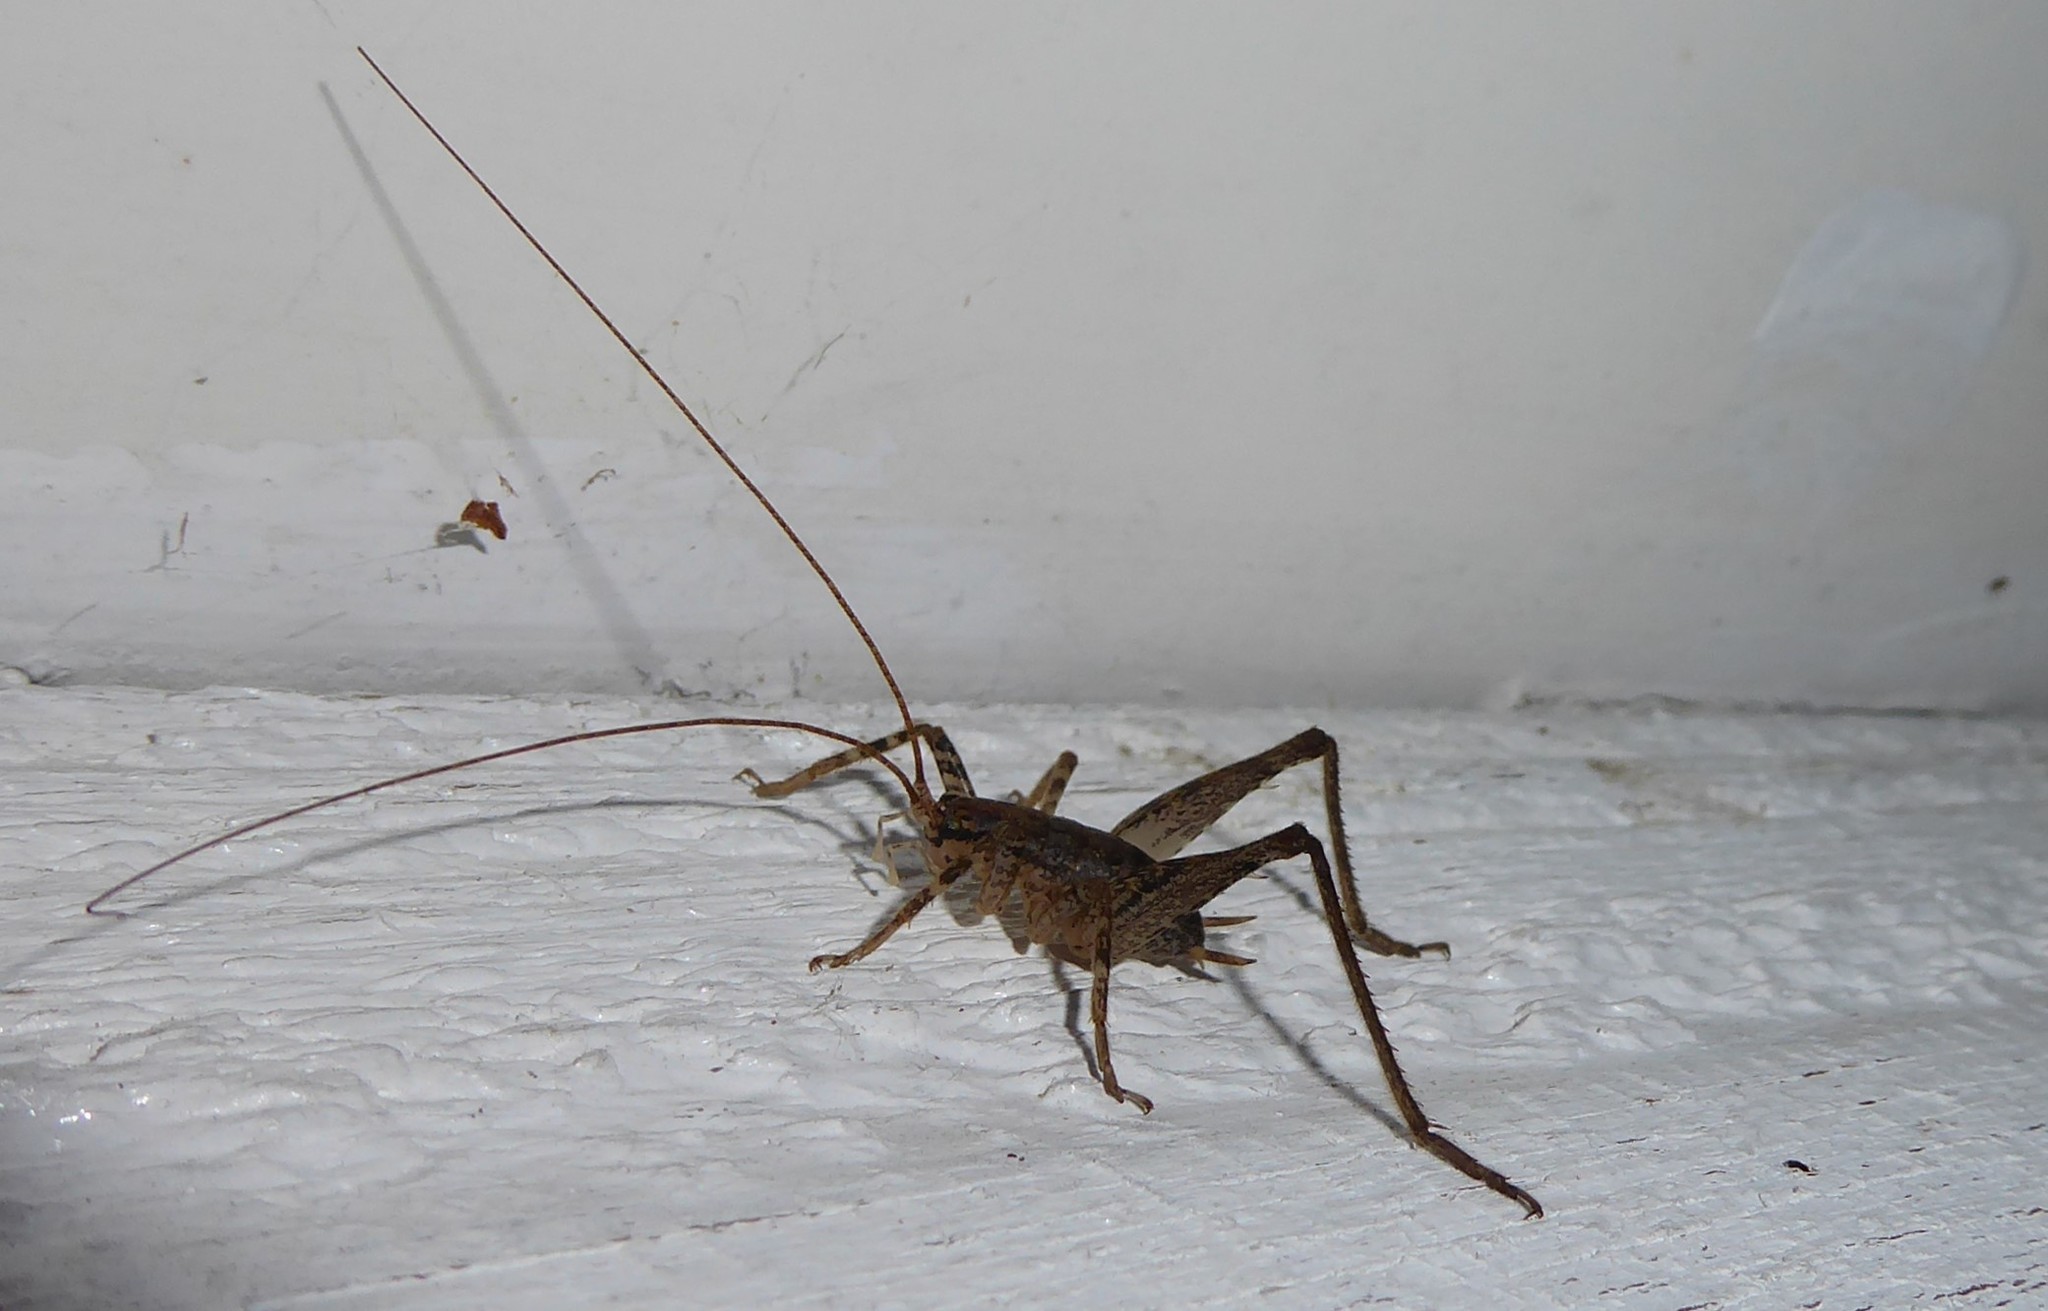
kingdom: Animalia
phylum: Arthropoda
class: Insecta
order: Orthoptera
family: Rhaphidophoridae
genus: Isoplectron
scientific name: Isoplectron armatum
